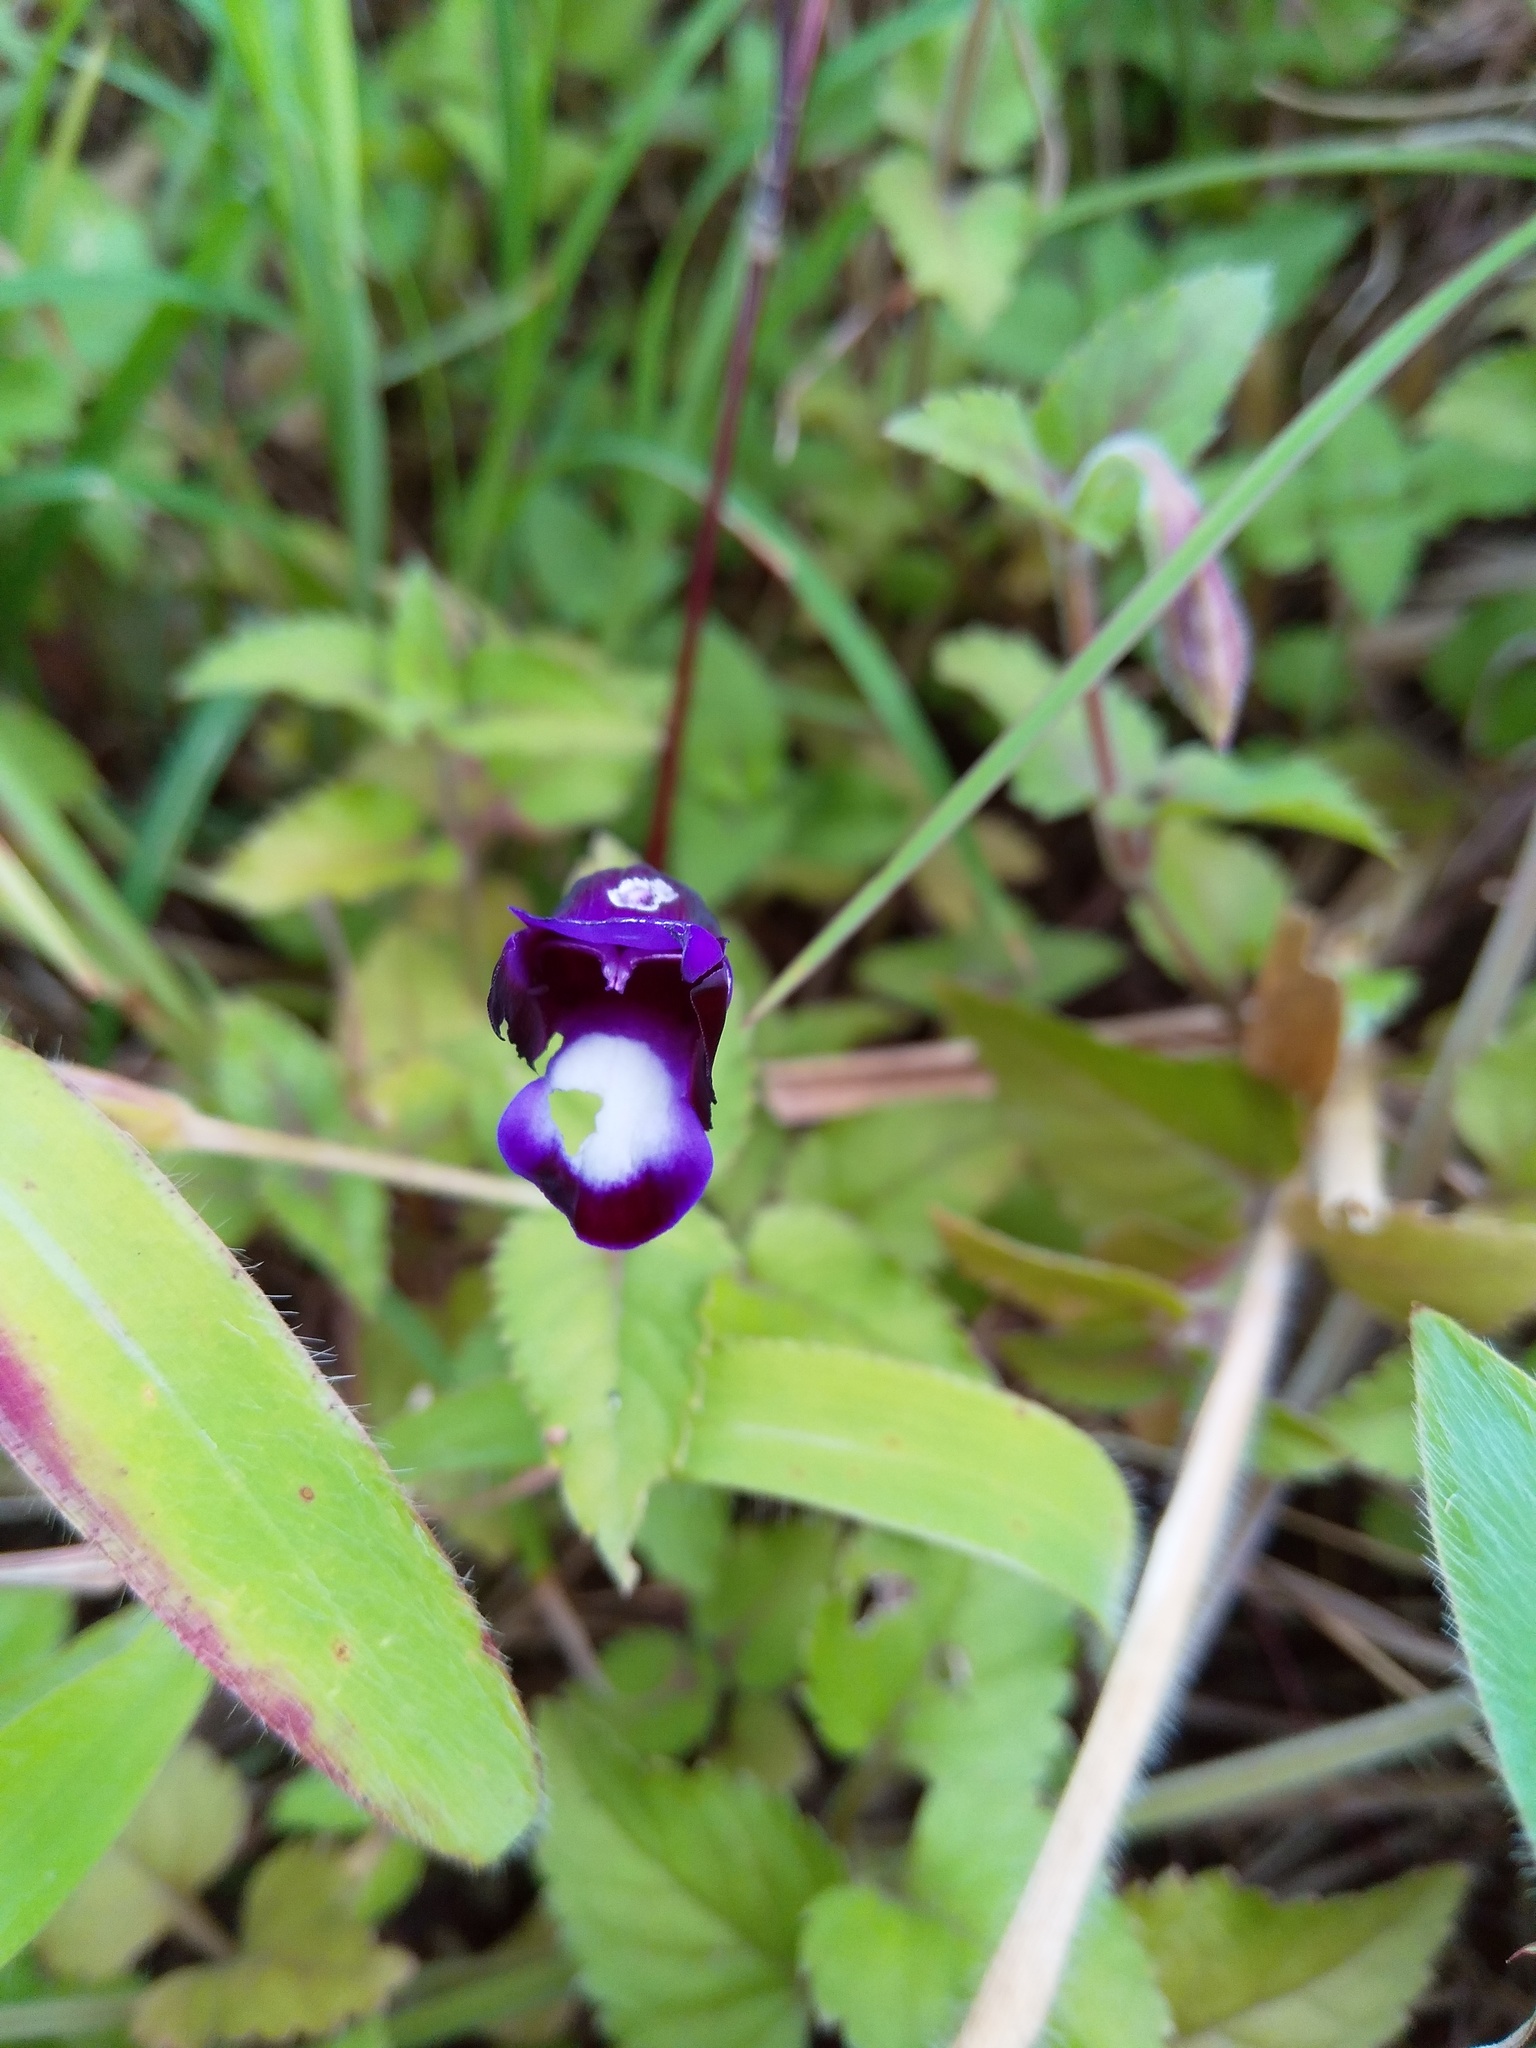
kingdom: Plantae
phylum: Tracheophyta
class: Magnoliopsida
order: Lamiales
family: Linderniaceae
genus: Torenia
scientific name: Torenia fournieri
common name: Bluewings
